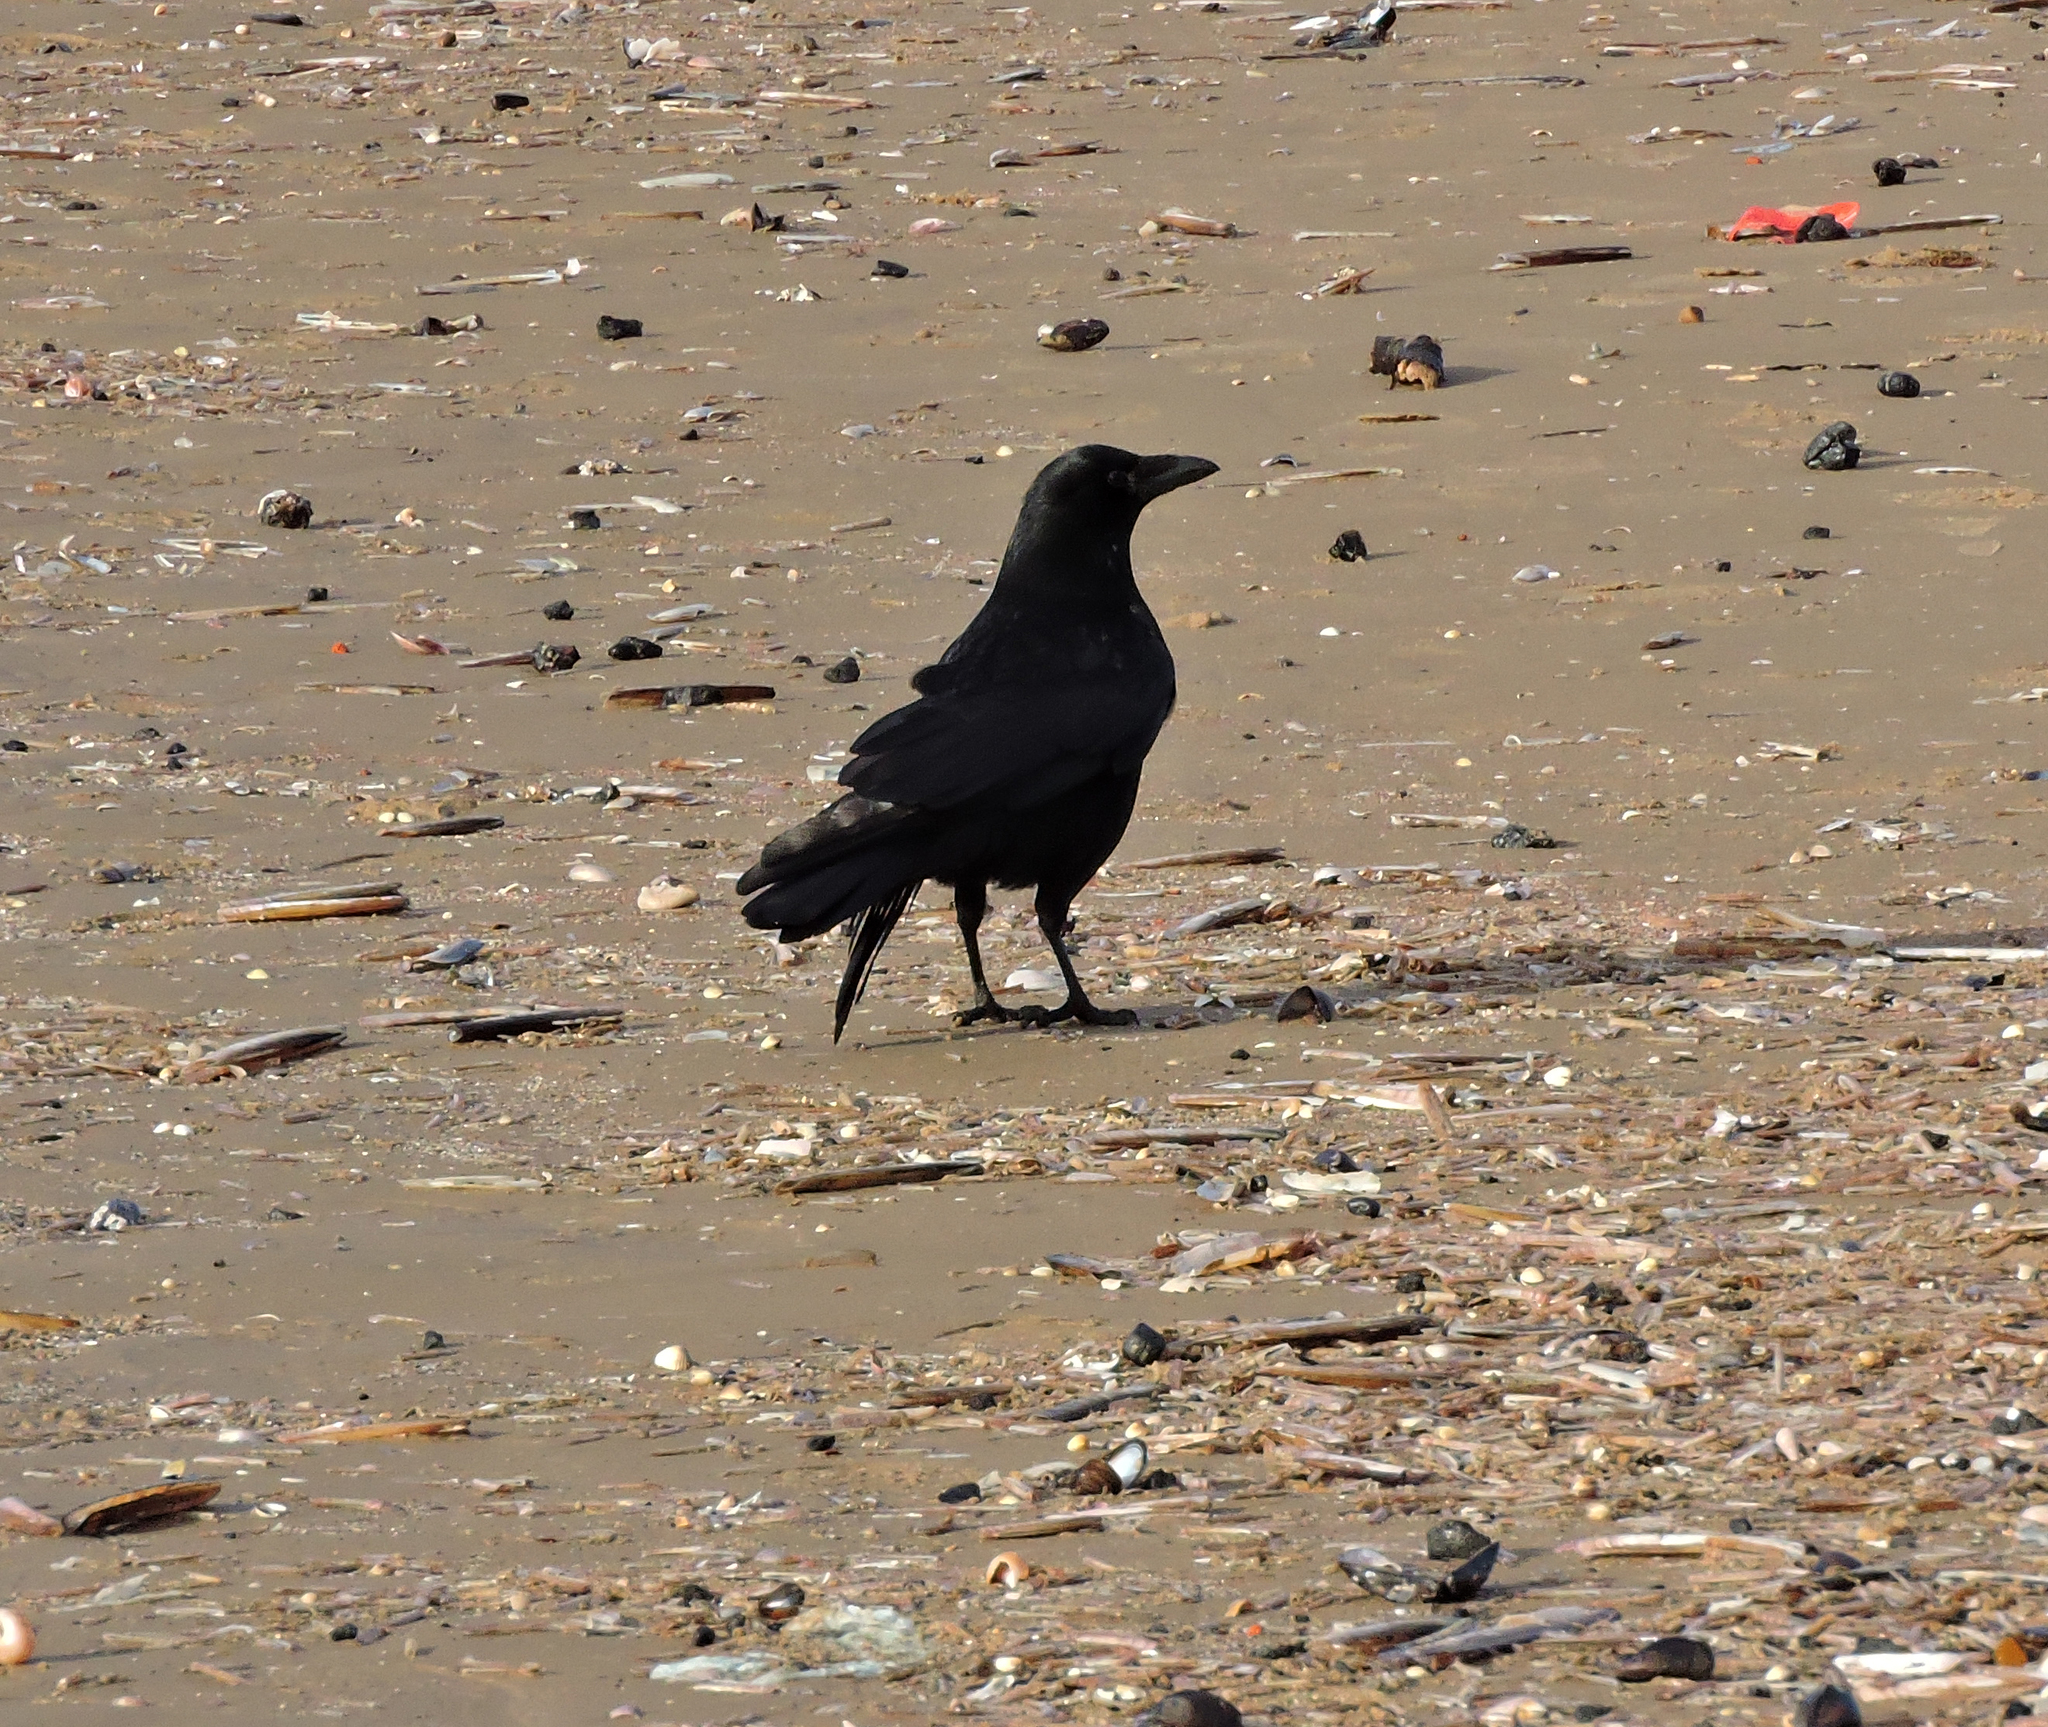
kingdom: Animalia
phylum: Chordata
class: Aves
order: Passeriformes
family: Corvidae
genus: Corvus
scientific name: Corvus corone
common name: Carrion crow
